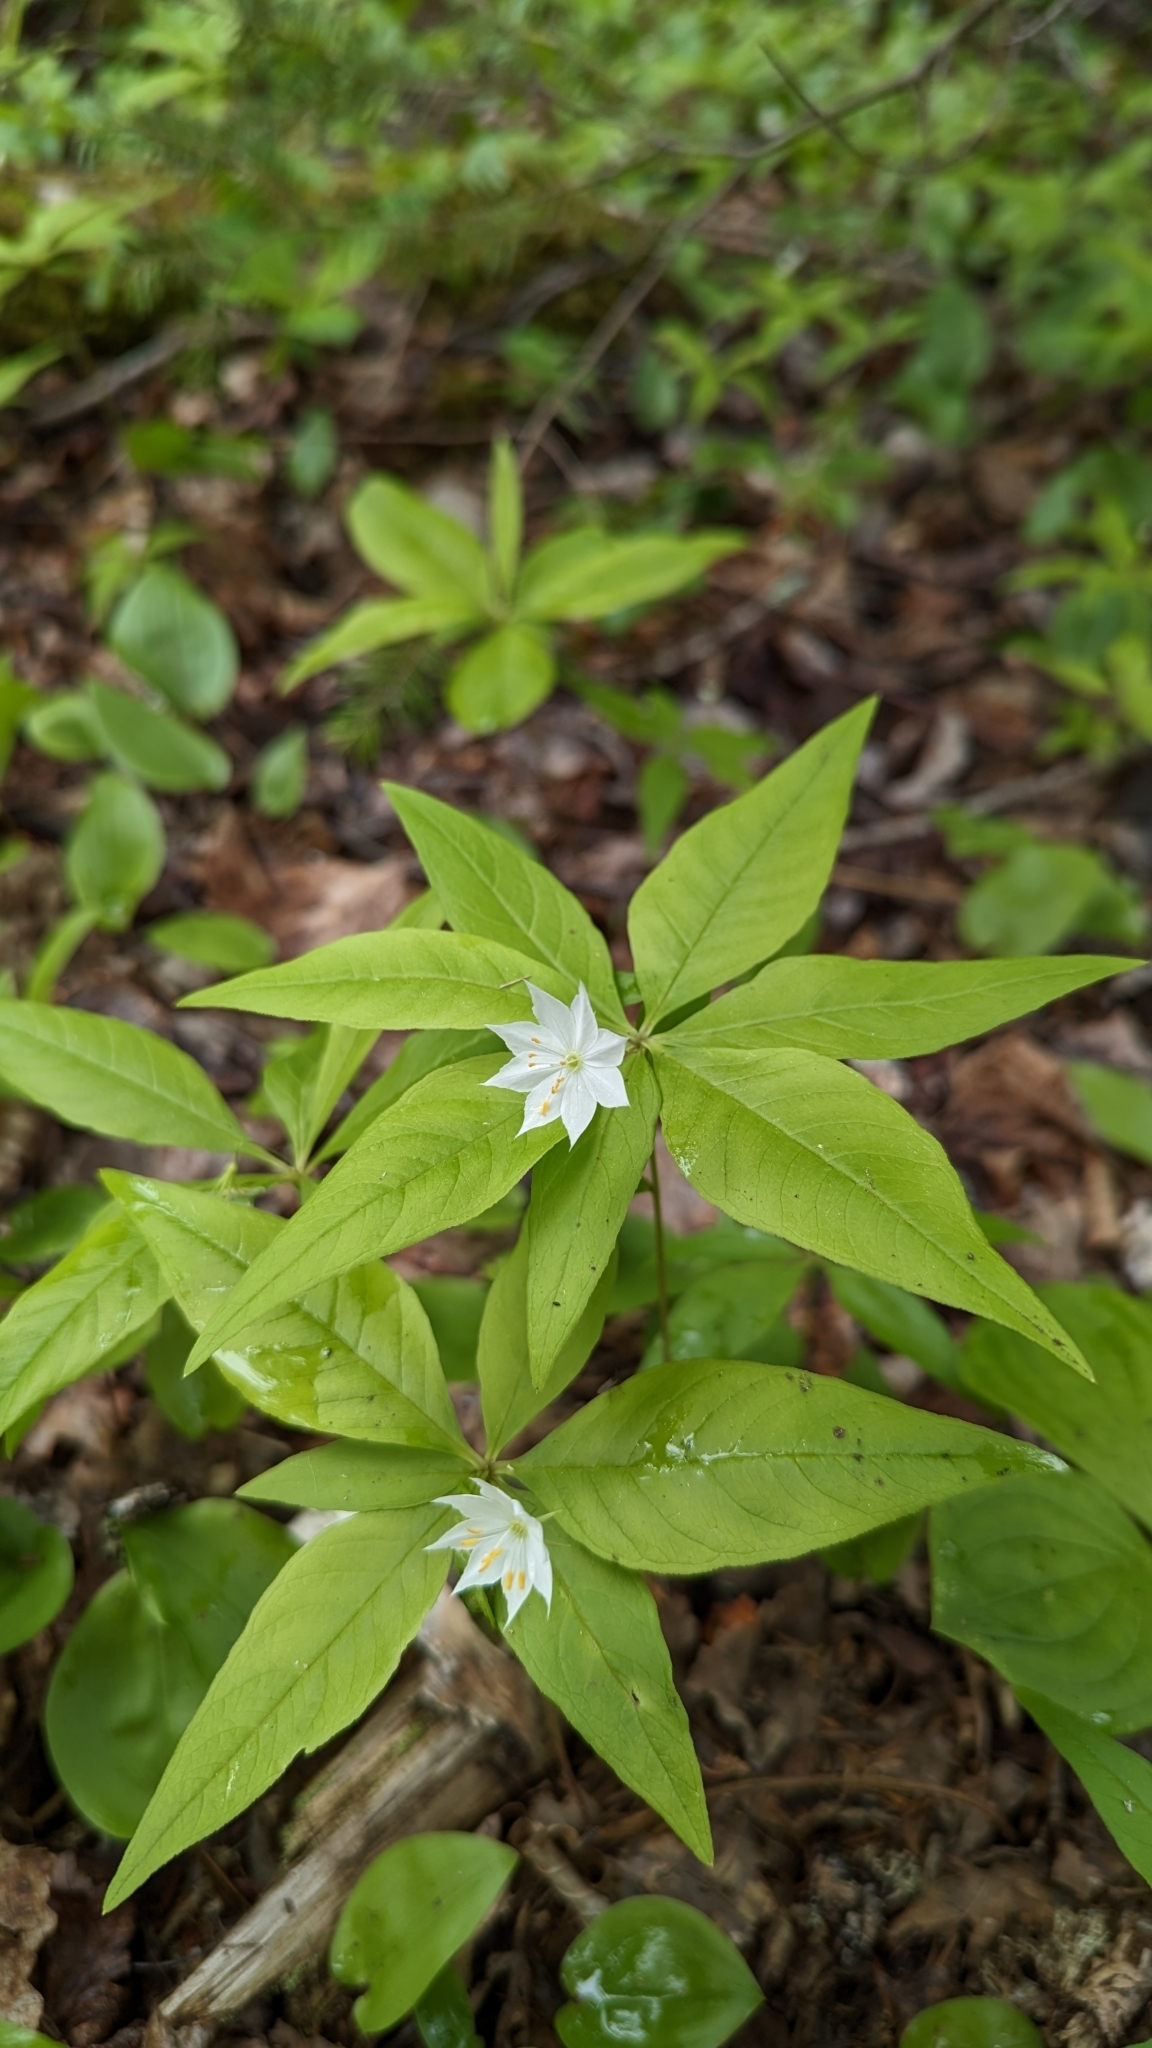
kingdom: Plantae
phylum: Tracheophyta
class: Magnoliopsida
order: Ericales
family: Primulaceae
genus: Lysimachia
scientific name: Lysimachia borealis
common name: American starflower
